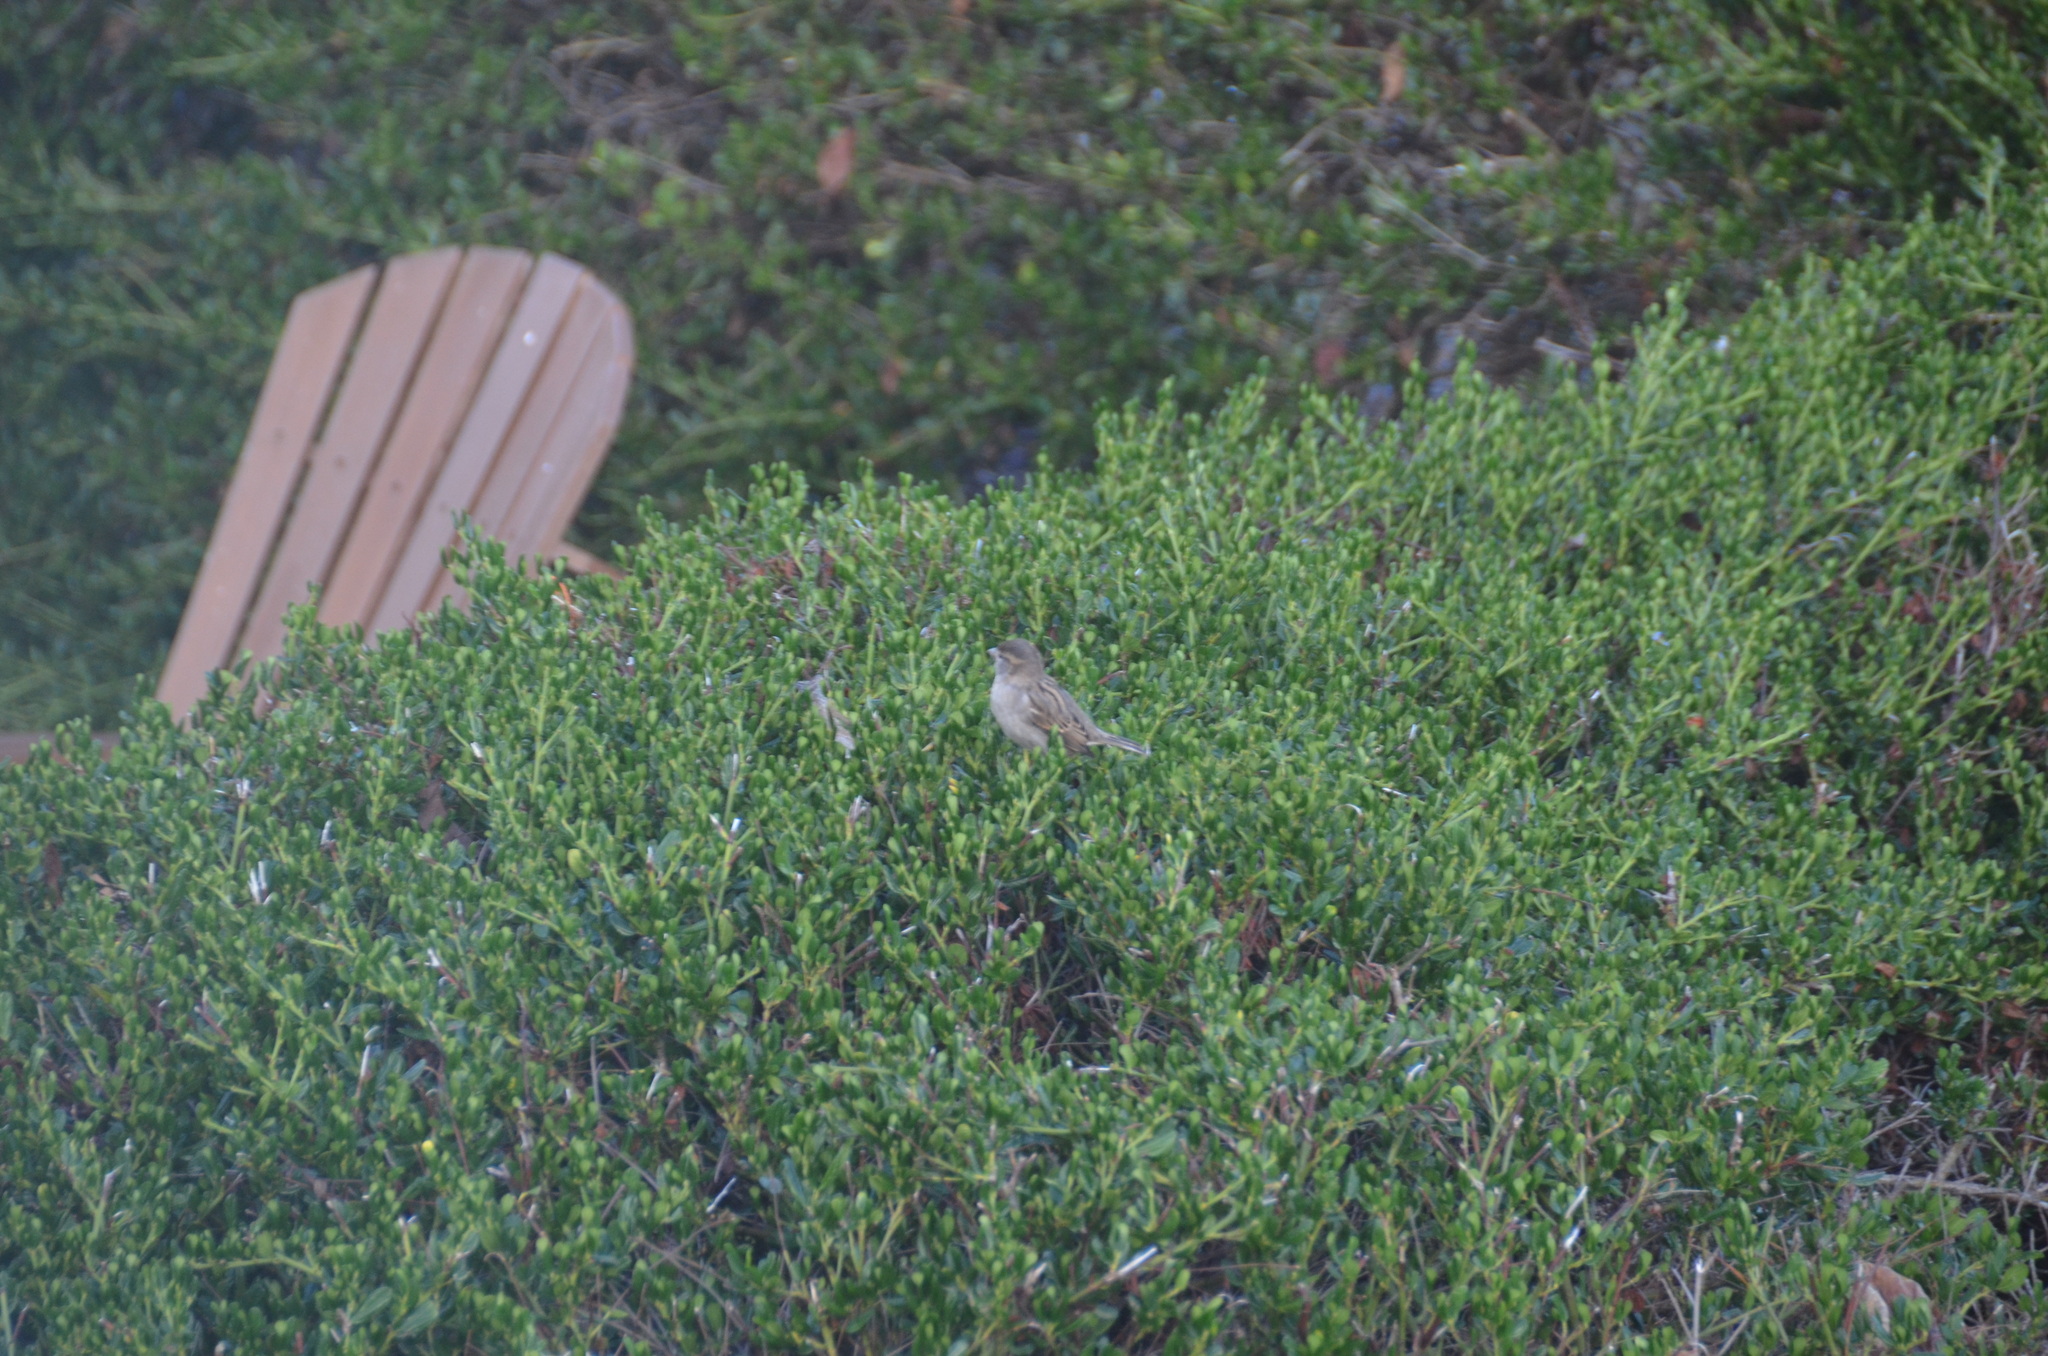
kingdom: Animalia
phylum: Chordata
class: Aves
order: Passeriformes
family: Passeridae
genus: Passer
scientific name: Passer domesticus
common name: House sparrow
